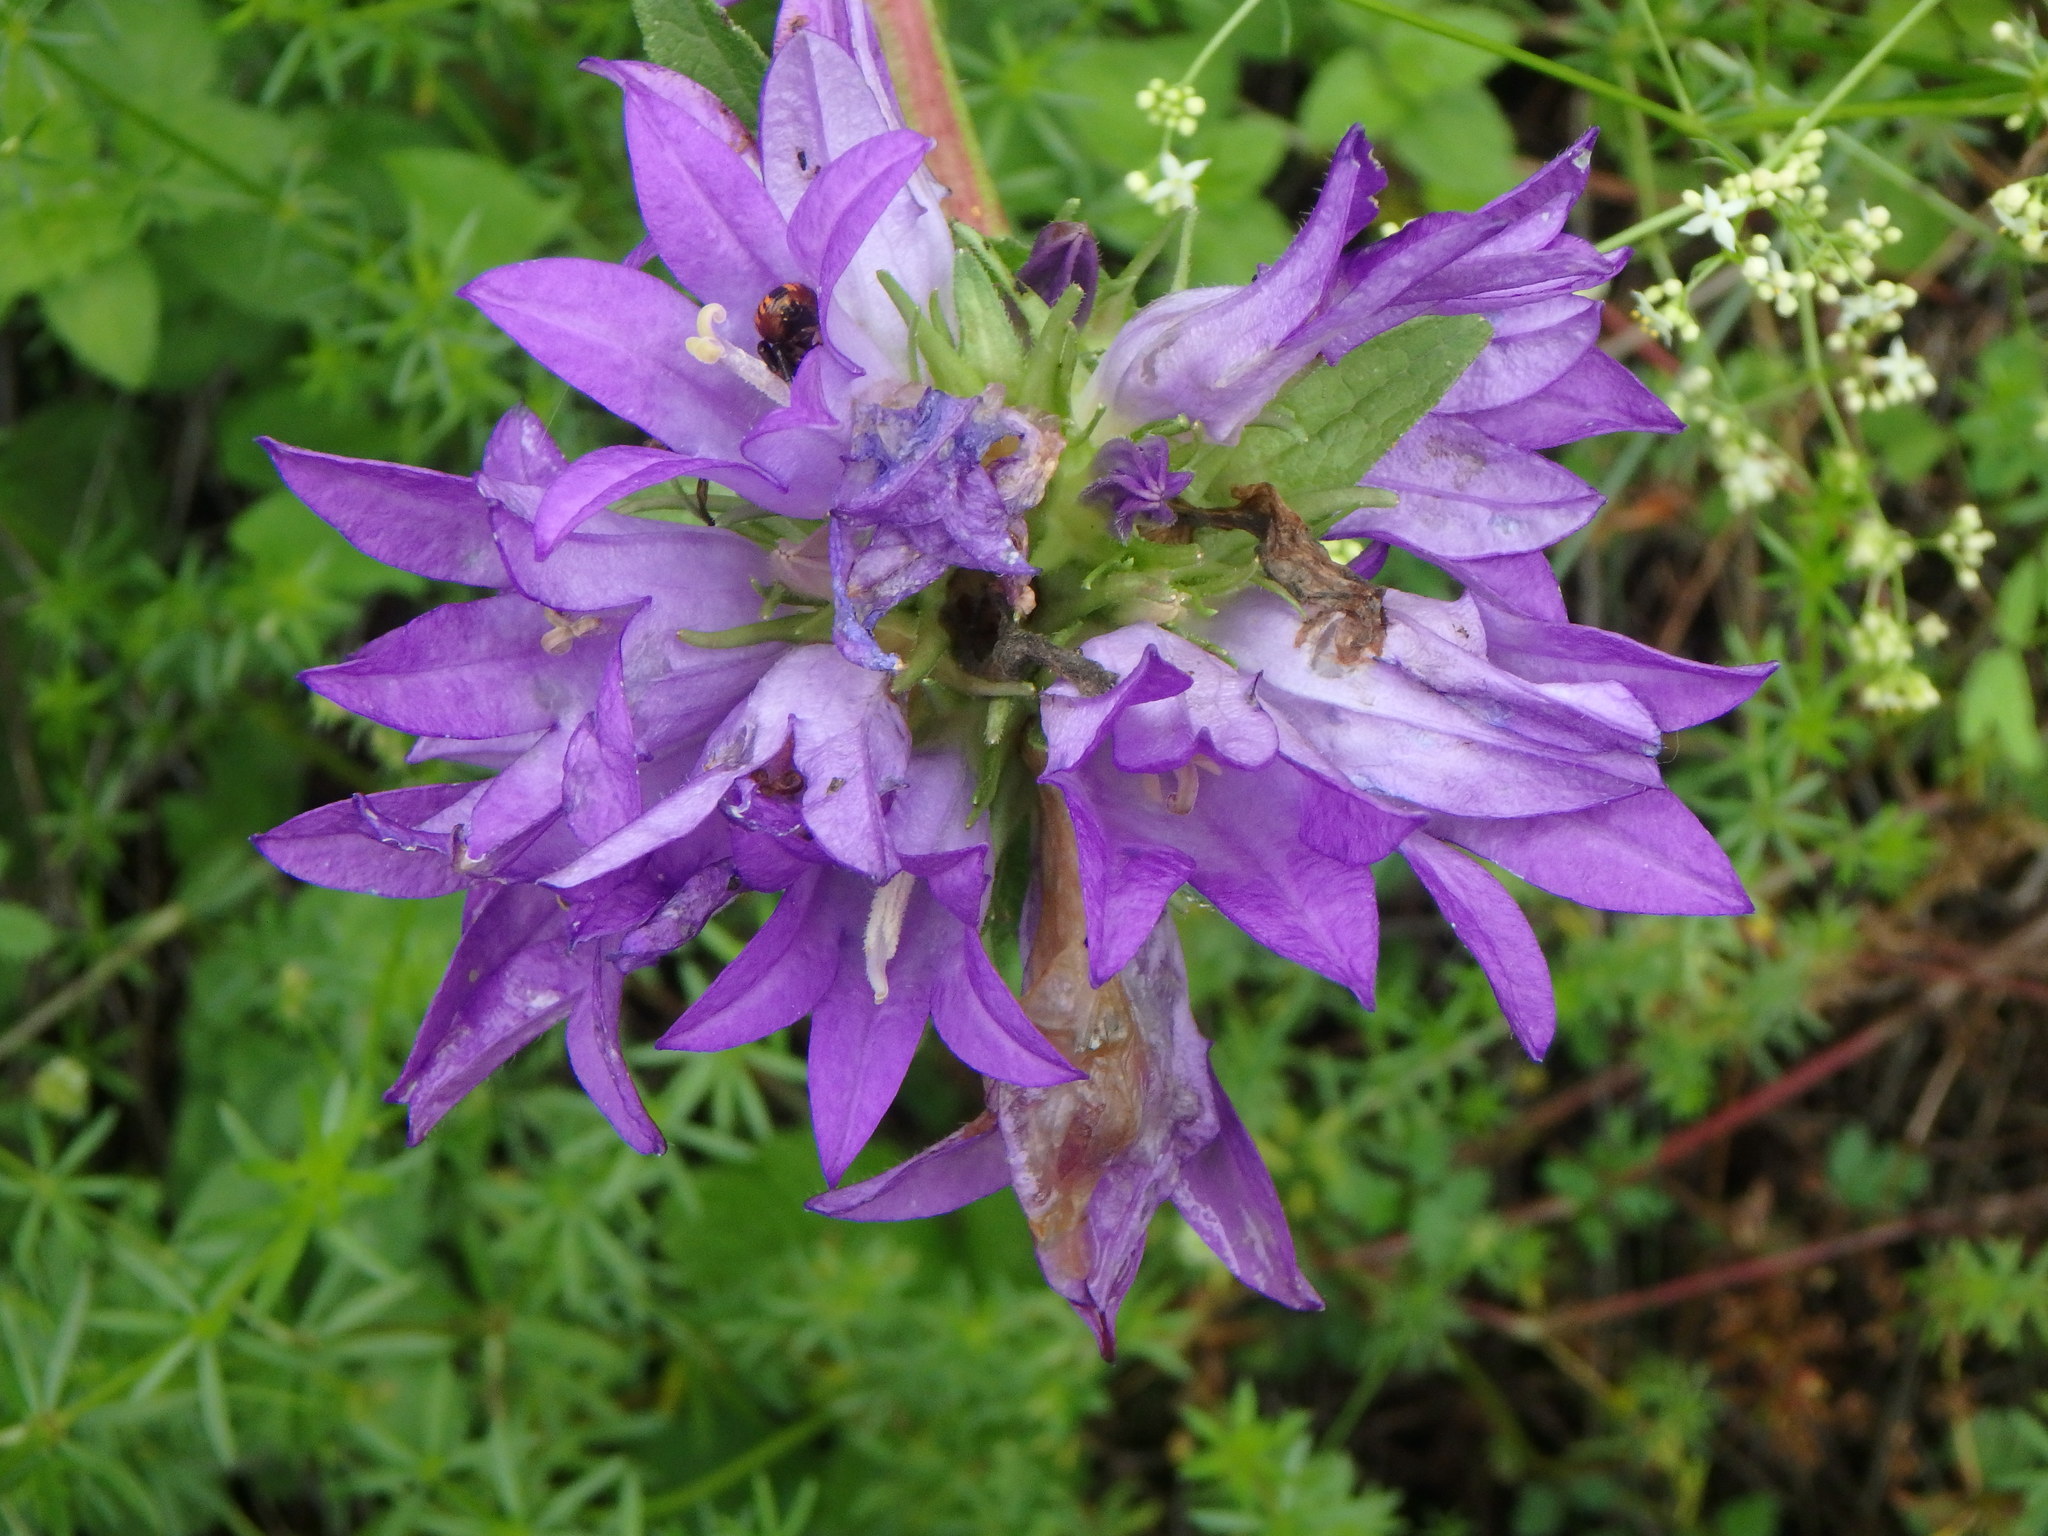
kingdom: Plantae
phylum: Tracheophyta
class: Magnoliopsida
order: Asterales
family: Campanulaceae
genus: Campanula
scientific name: Campanula glomerata
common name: Clustered bellflower
